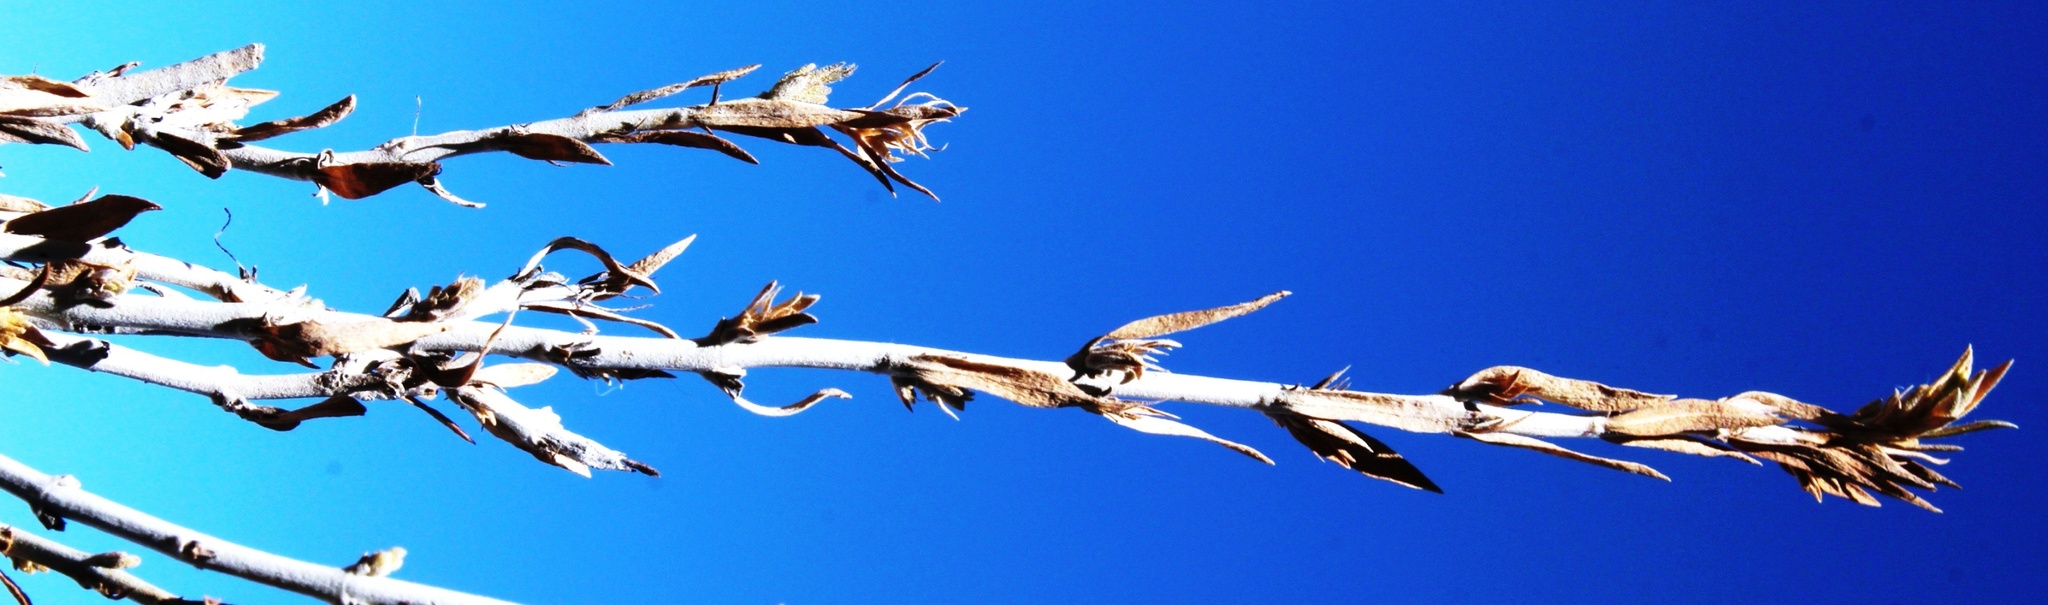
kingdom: Plantae
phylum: Tracheophyta
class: Magnoliopsida
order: Lamiales
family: Acanthaceae
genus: Pogonospermum
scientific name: Pogonospermum
